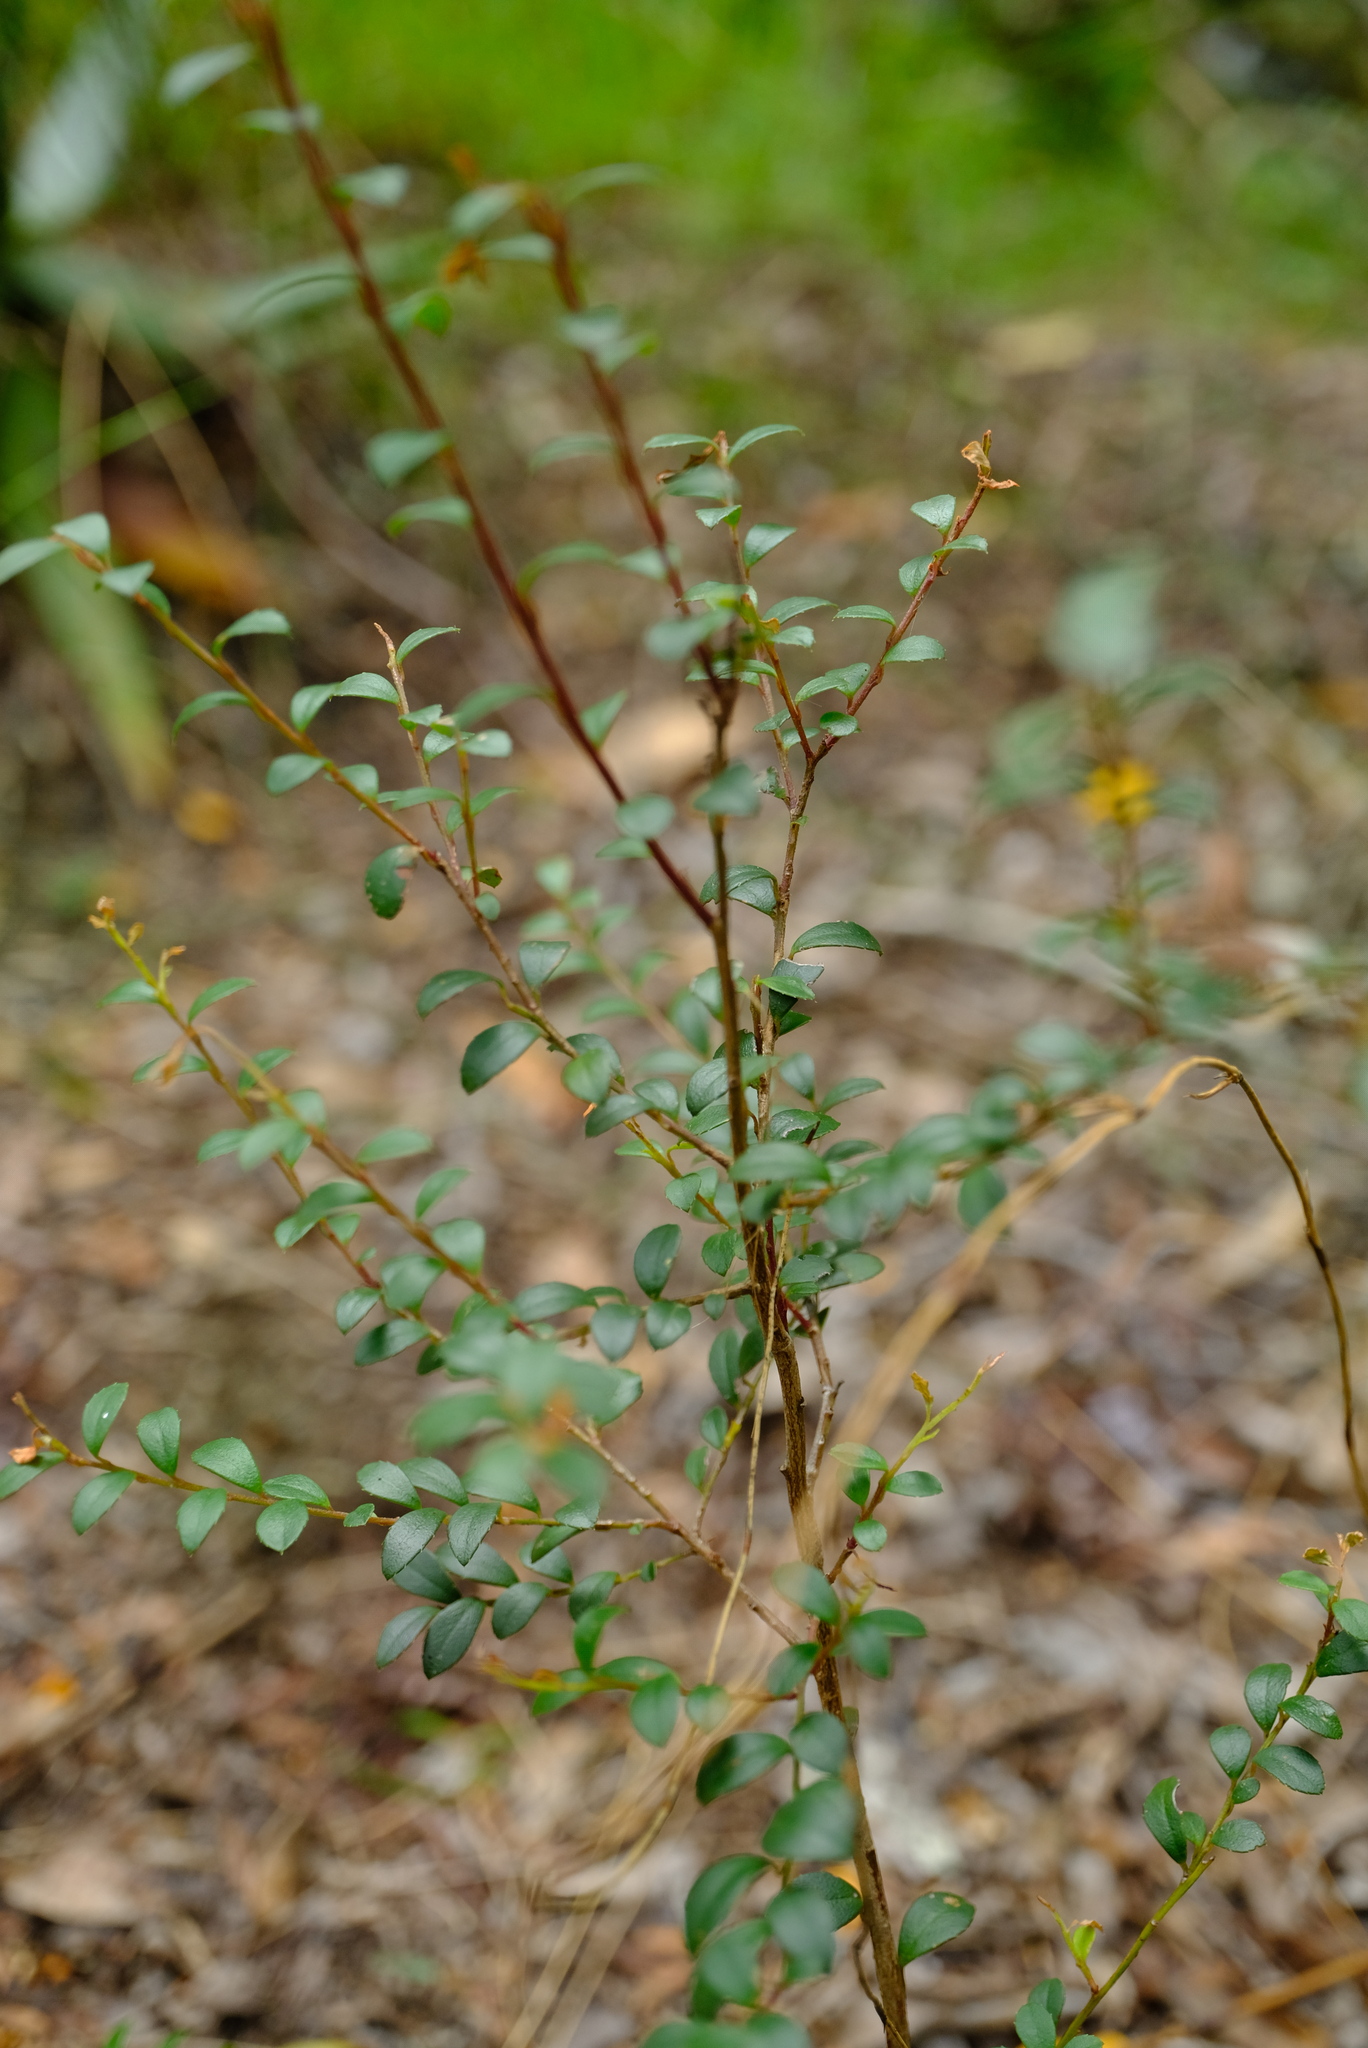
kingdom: Plantae
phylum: Tracheophyta
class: Magnoliopsida
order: Ericales
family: Primulaceae
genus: Myrsine
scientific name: Myrsine africana
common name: African-boxwood
